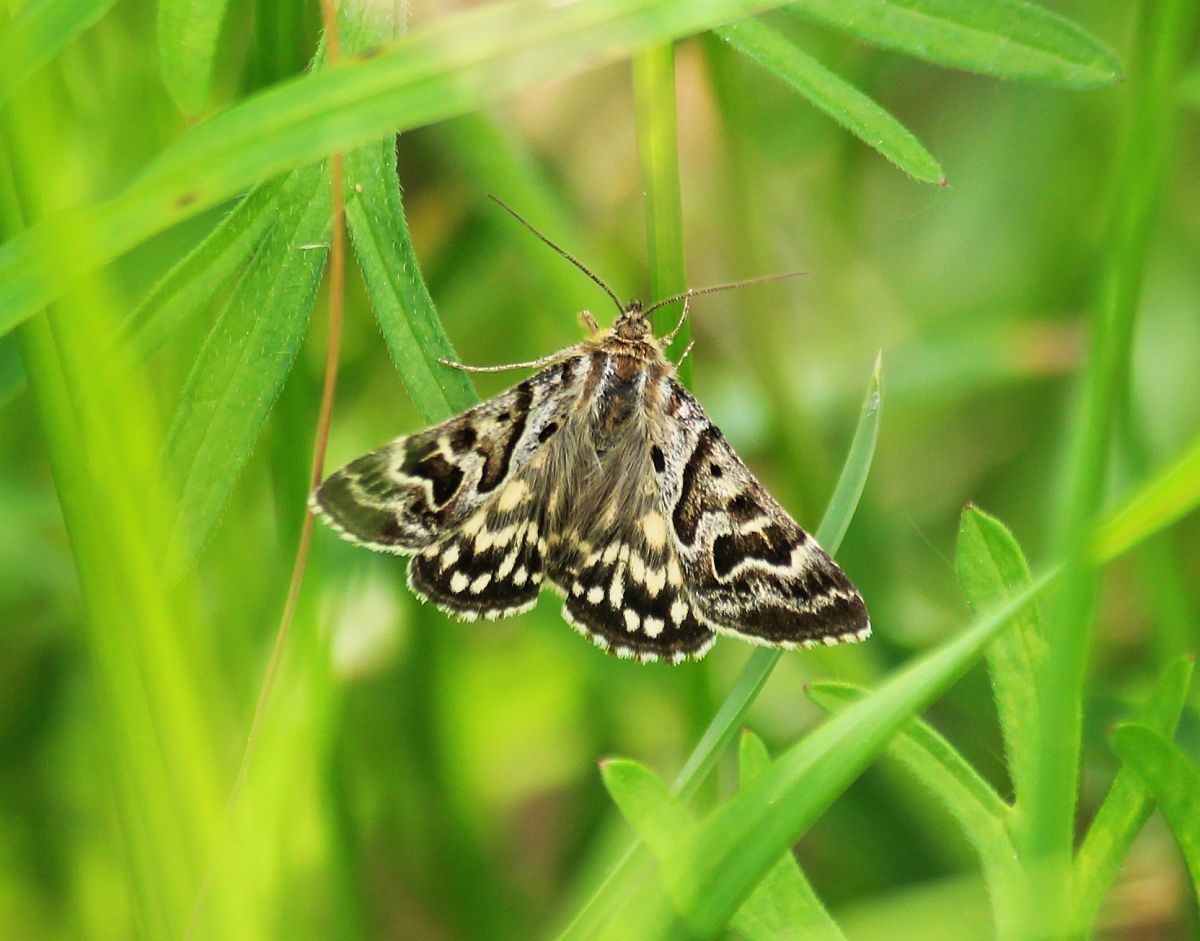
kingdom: Animalia
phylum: Arthropoda
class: Insecta
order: Lepidoptera
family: Erebidae
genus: Callistege
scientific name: Callistege mi
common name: Mother shipton
